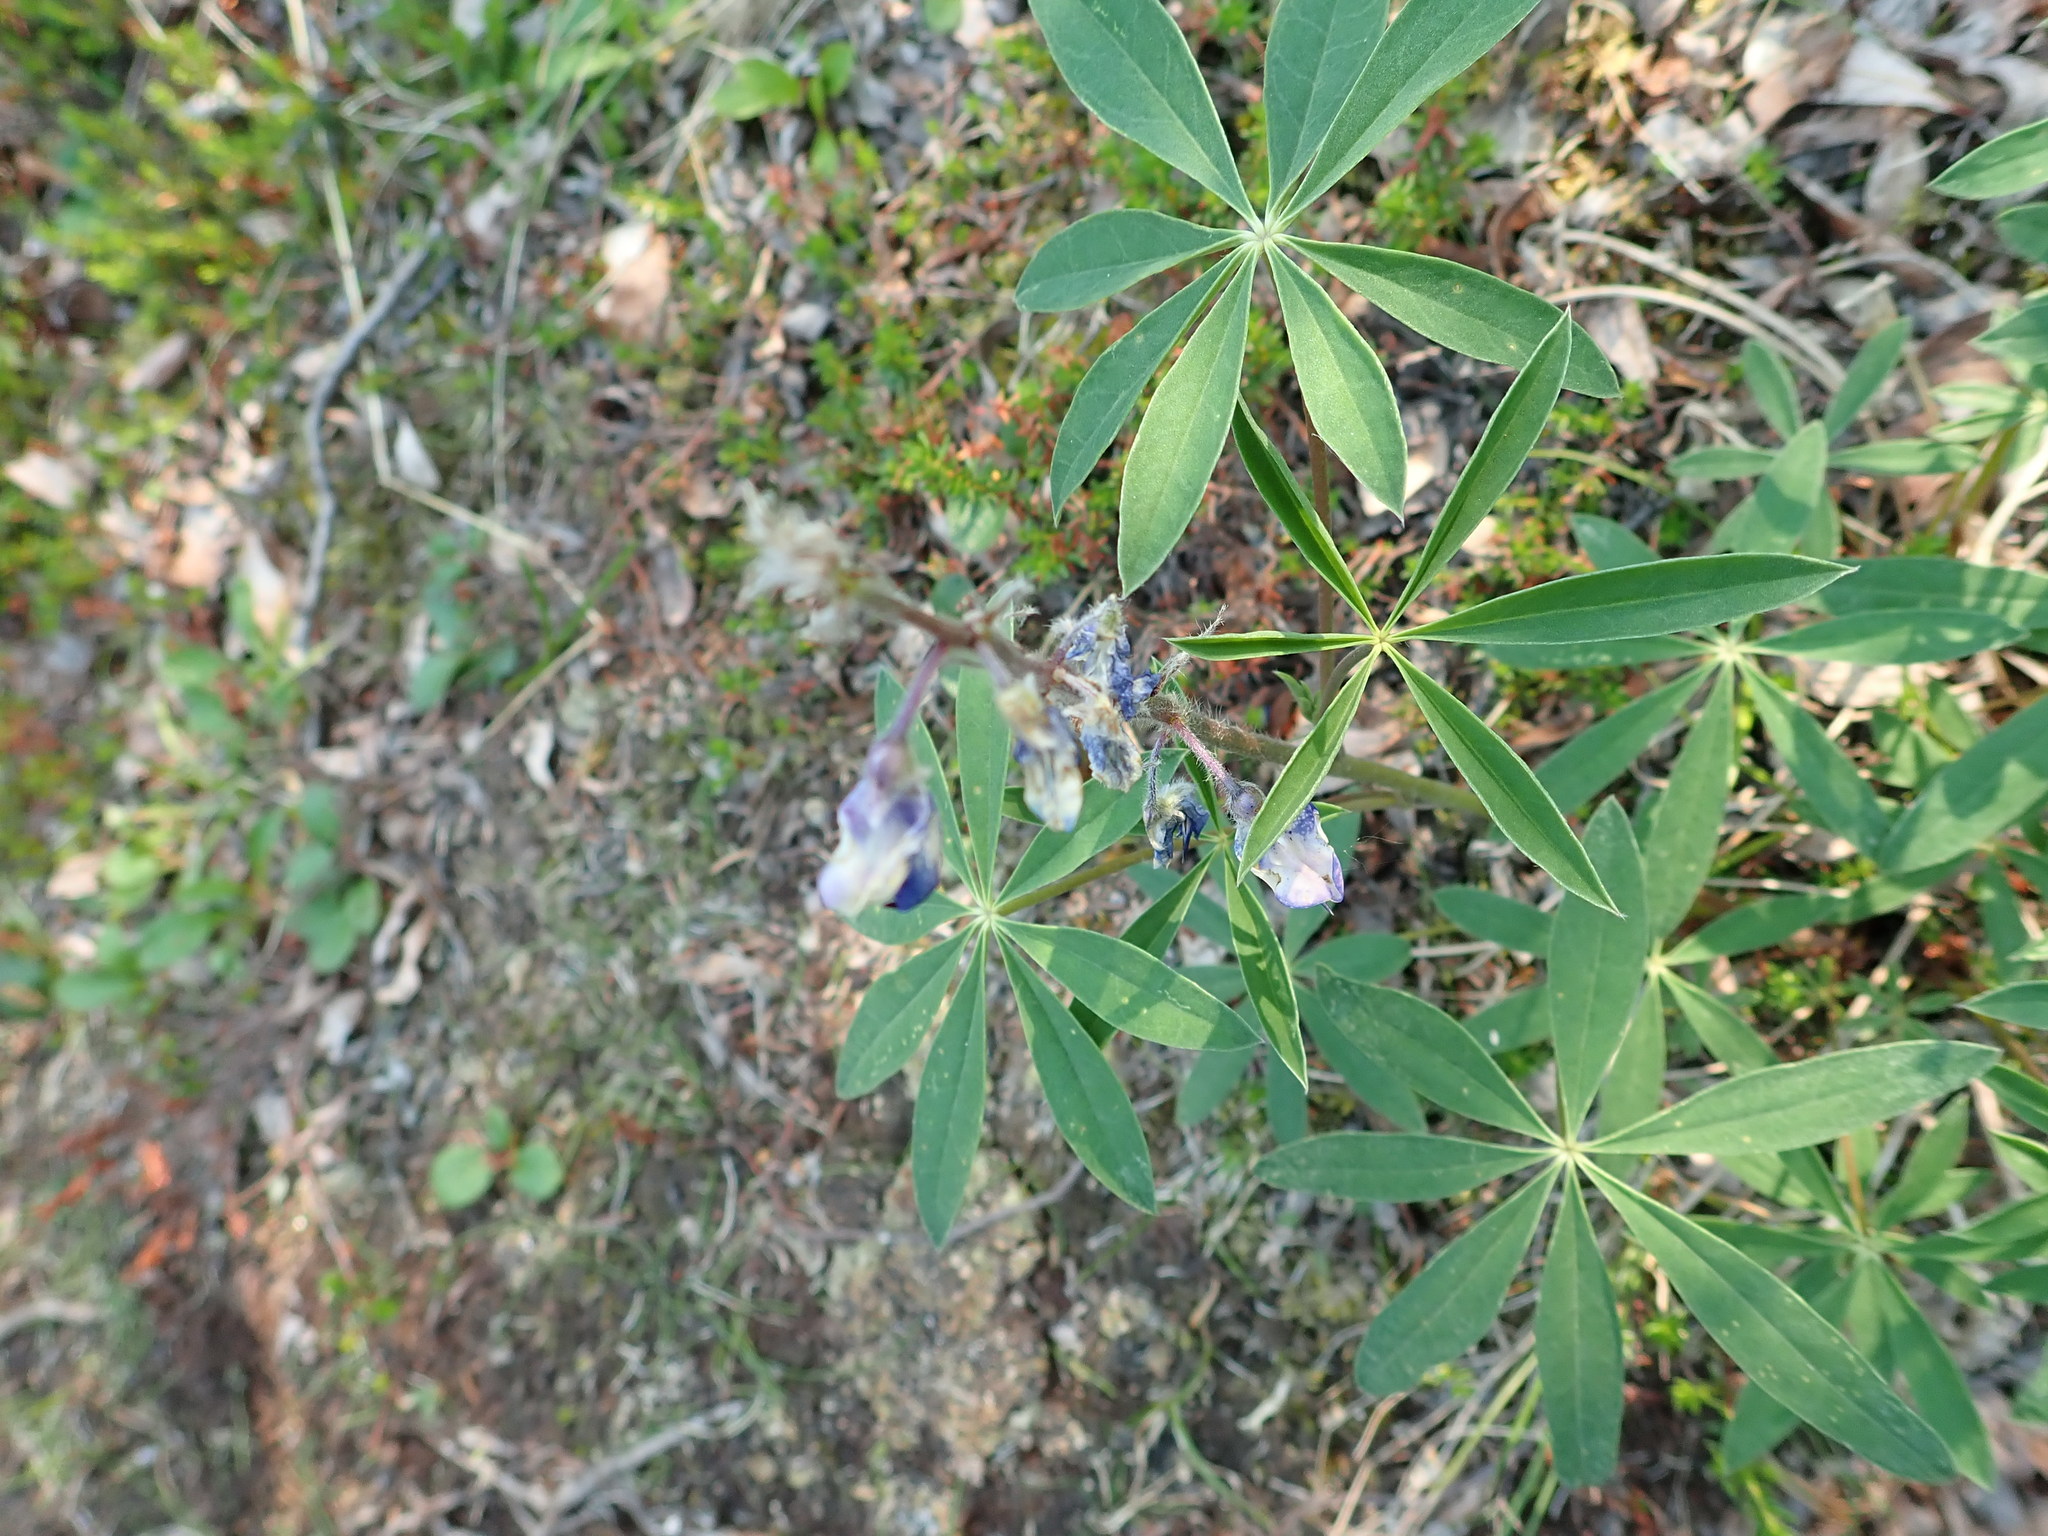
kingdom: Plantae
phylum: Tracheophyta
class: Magnoliopsida
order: Fabales
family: Fabaceae
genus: Lupinus
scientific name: Lupinus arcticus
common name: Arctic lupine
